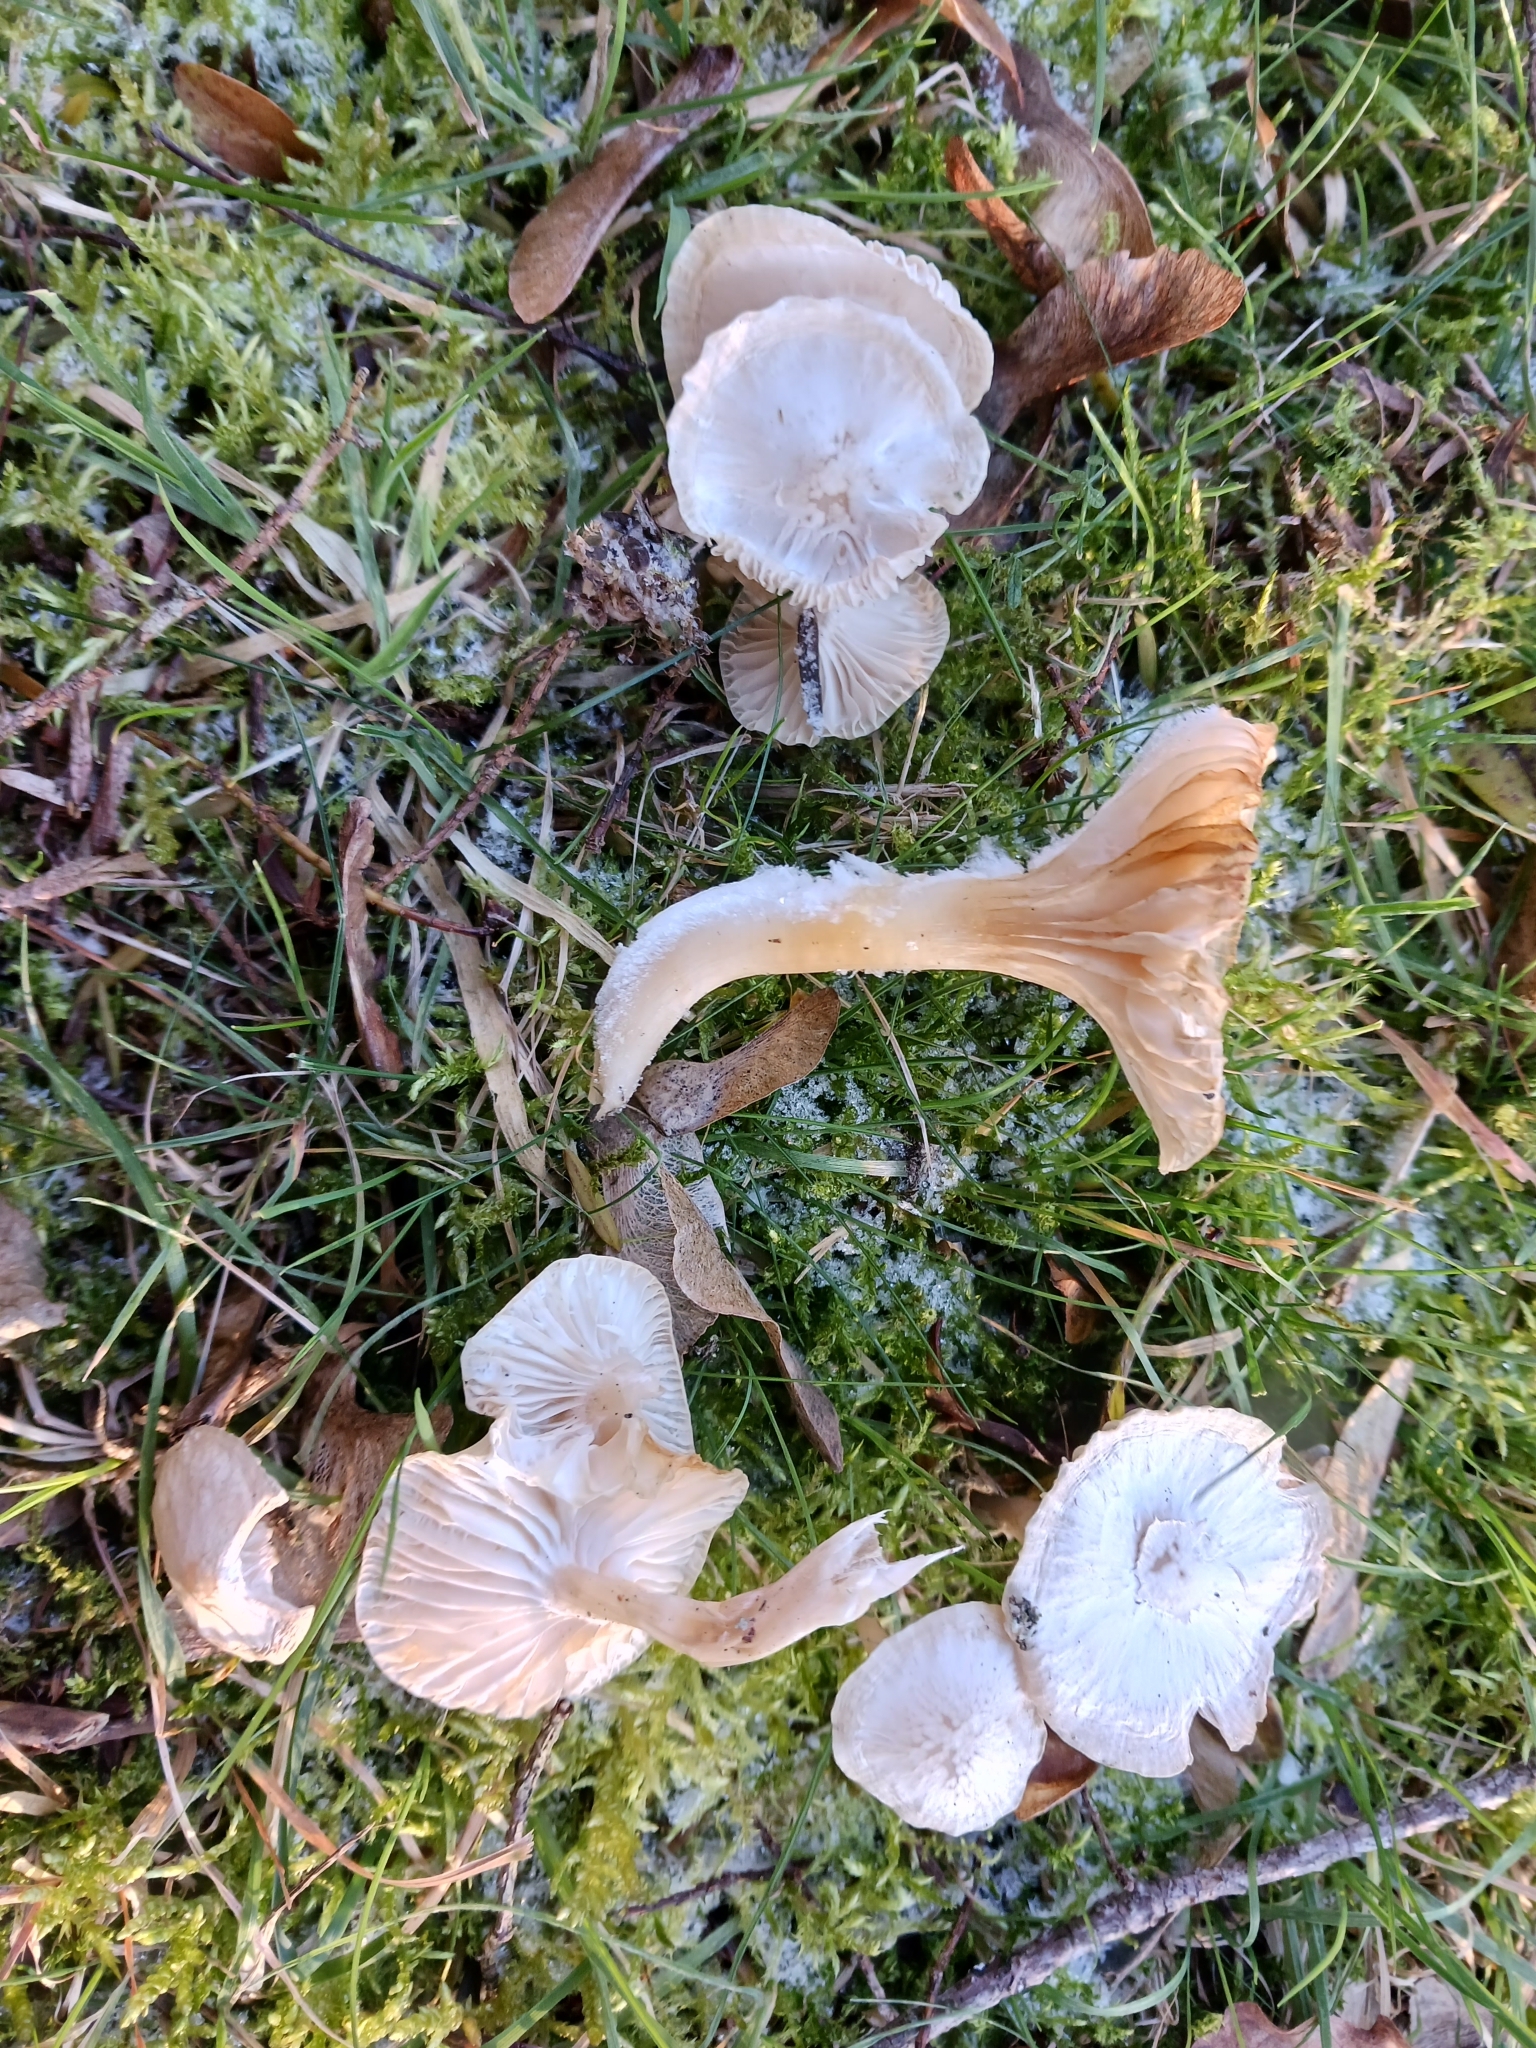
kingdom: Fungi
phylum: Basidiomycota
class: Agaricomycetes
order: Agaricales
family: Hygrophoraceae
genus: Cuphophyllus
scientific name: Cuphophyllus virgineus
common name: Snowy waxcap
